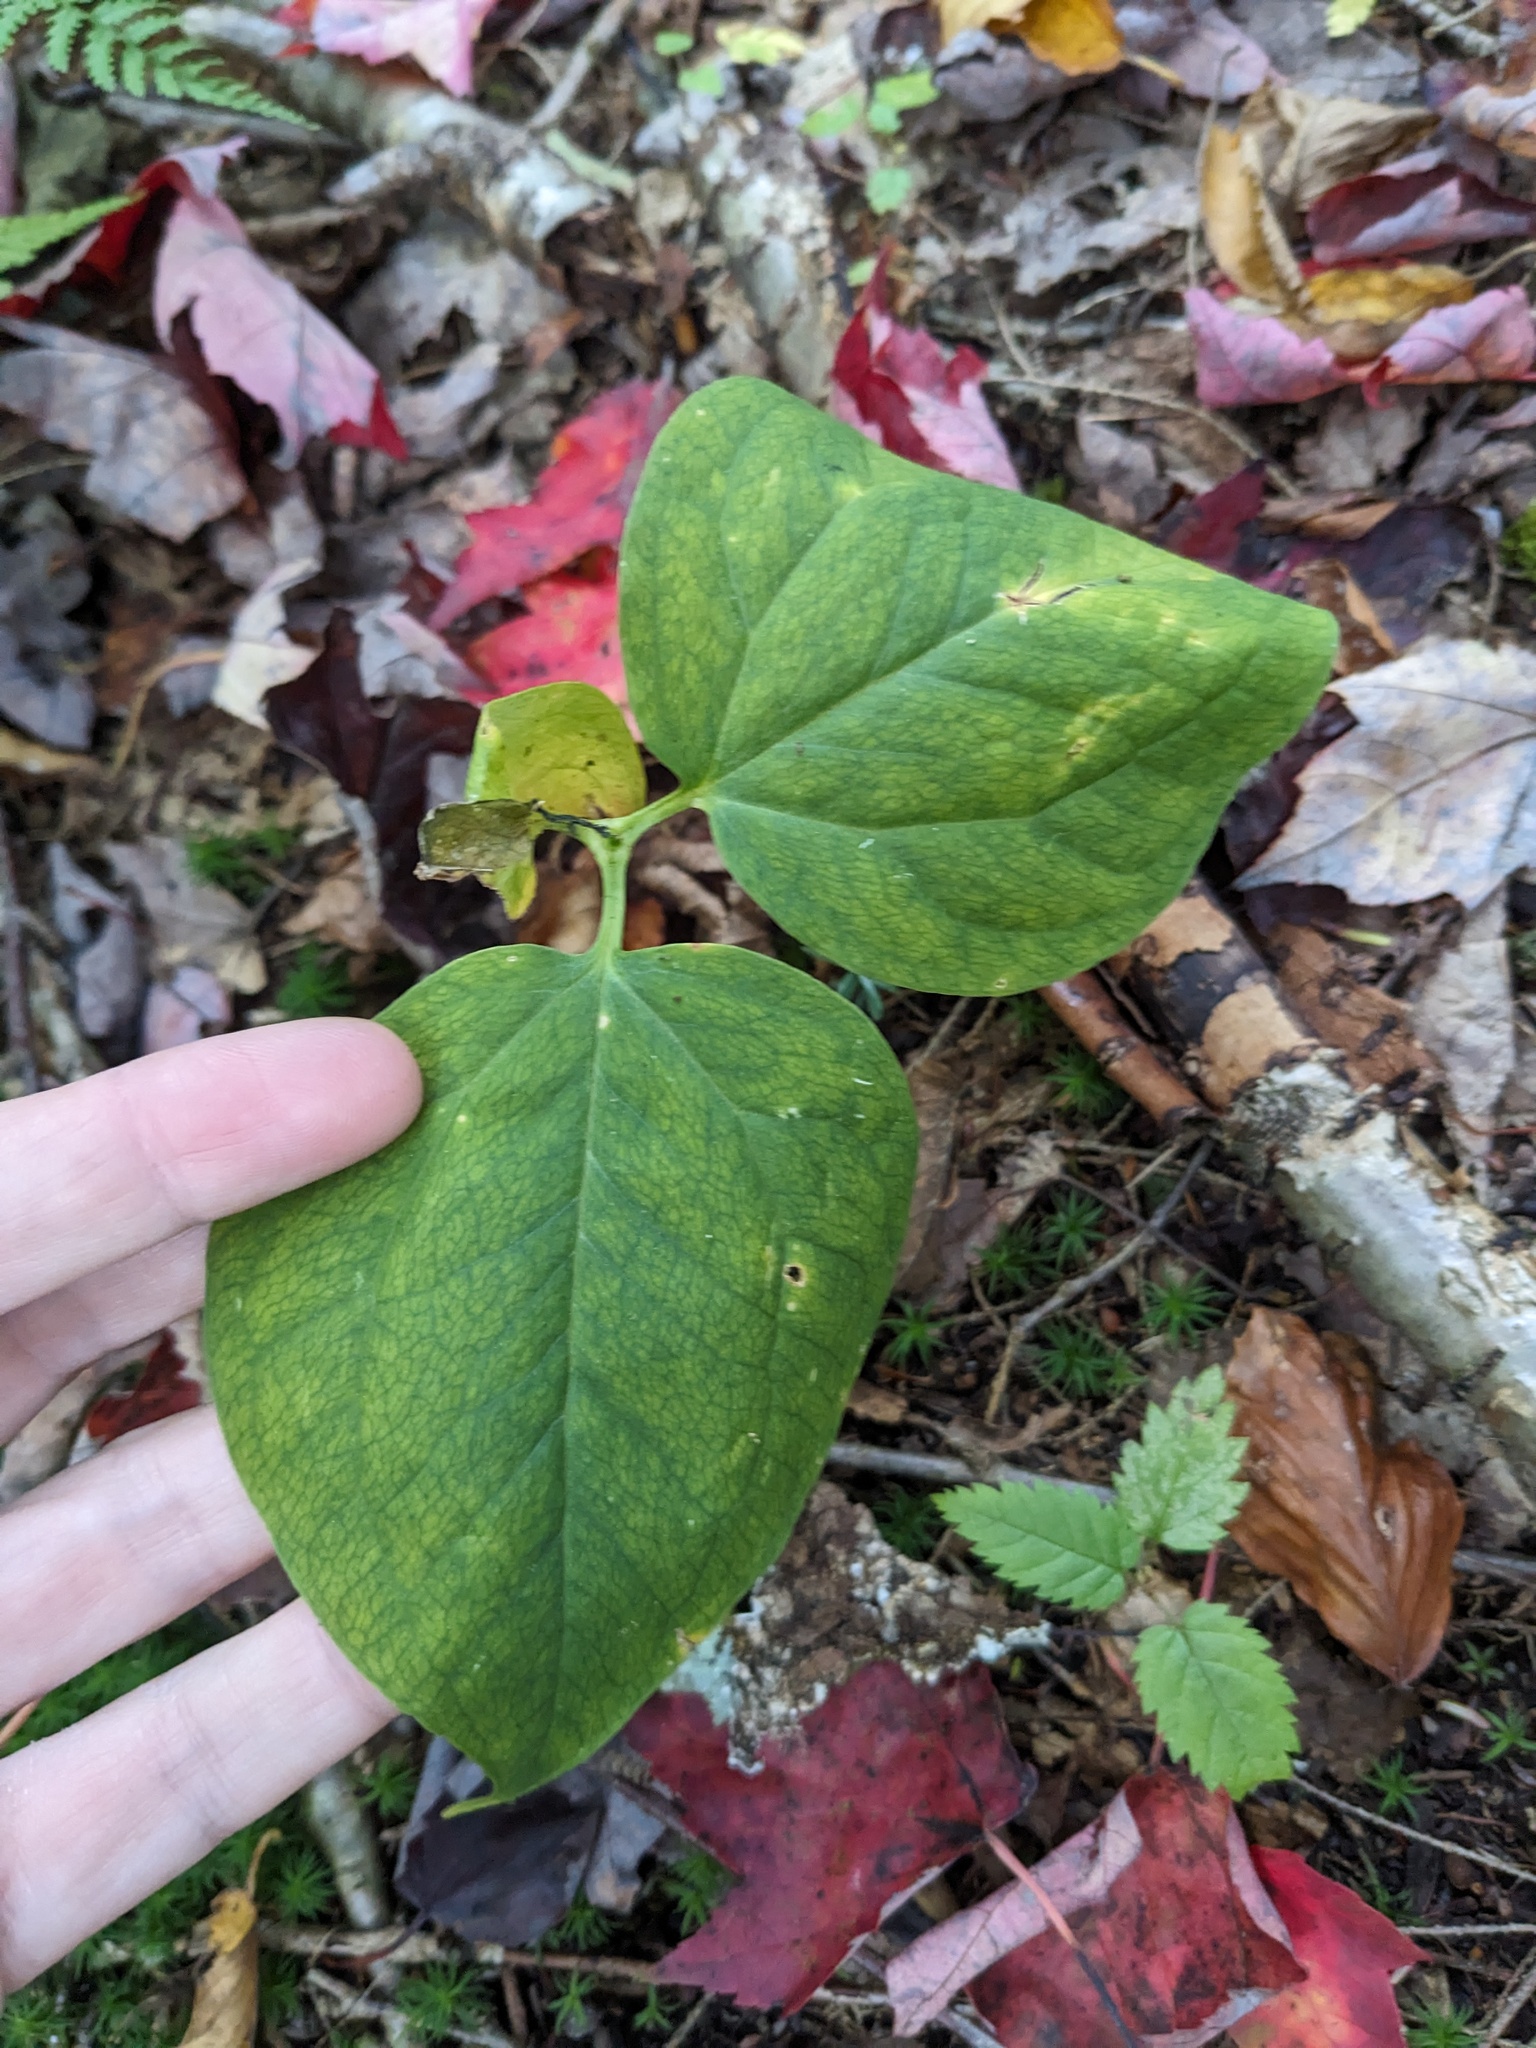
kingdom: Plantae
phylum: Tracheophyta
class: Liliopsida
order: Liliales
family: Melanthiaceae
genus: Trillium
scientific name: Trillium undulatum
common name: Paint trillium
